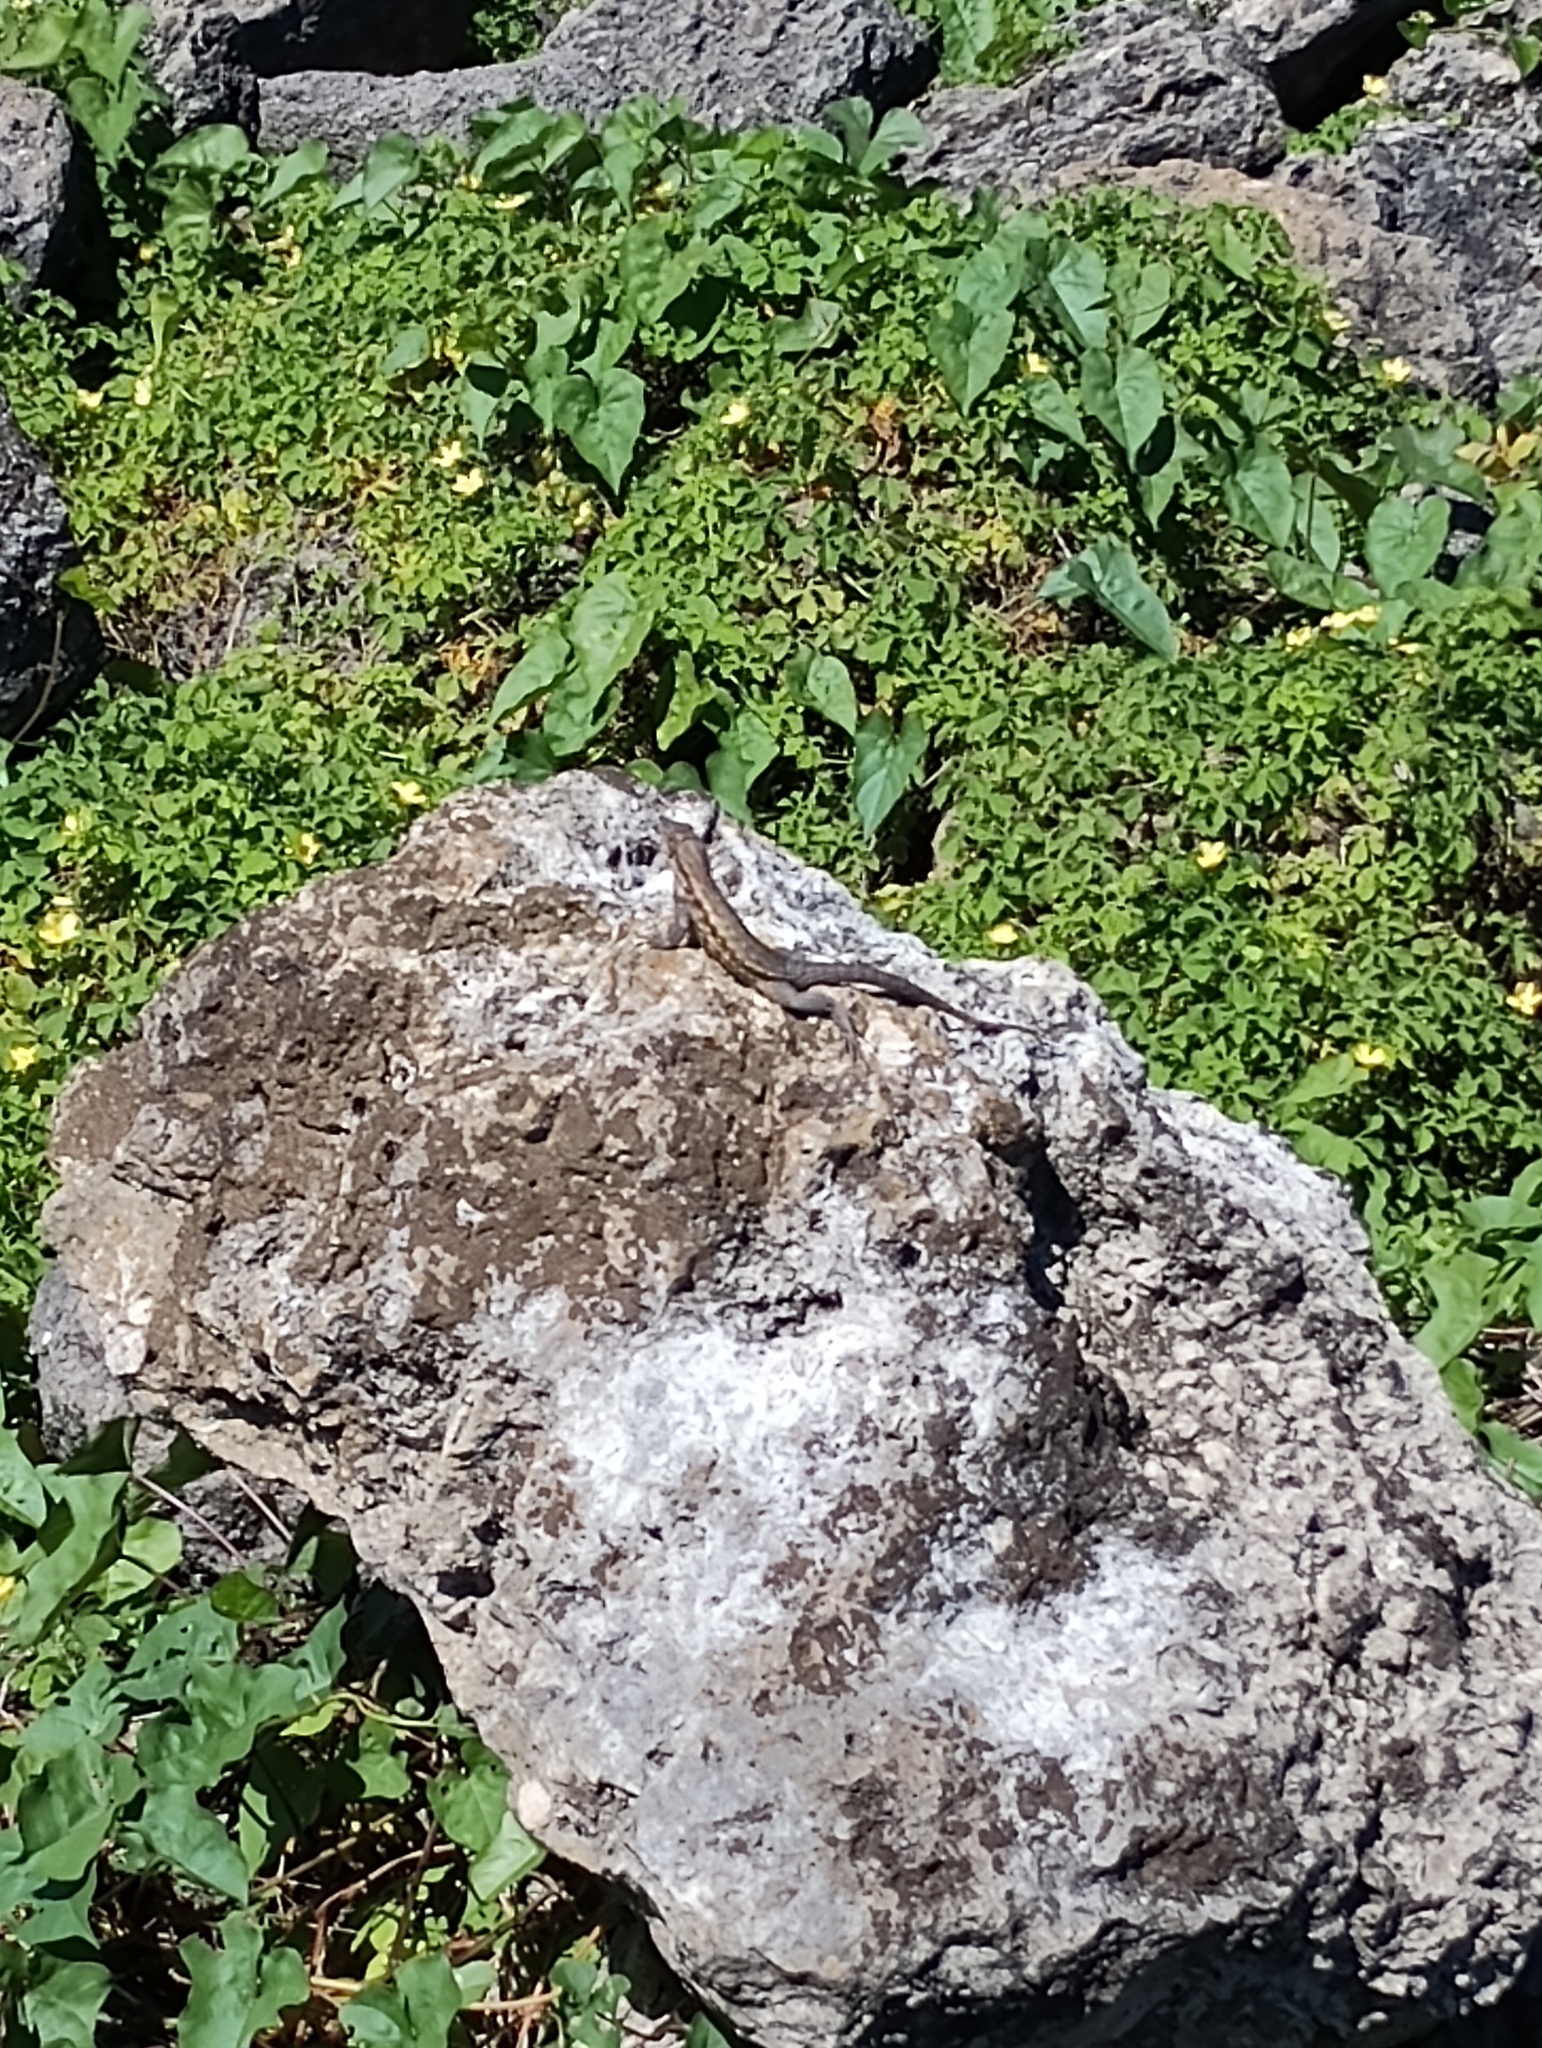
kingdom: Animalia
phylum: Chordata
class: Squamata
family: Leiocephalidae
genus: Leiocephalus
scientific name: Leiocephalus carinatus
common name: Northern curly-tailed lizard
